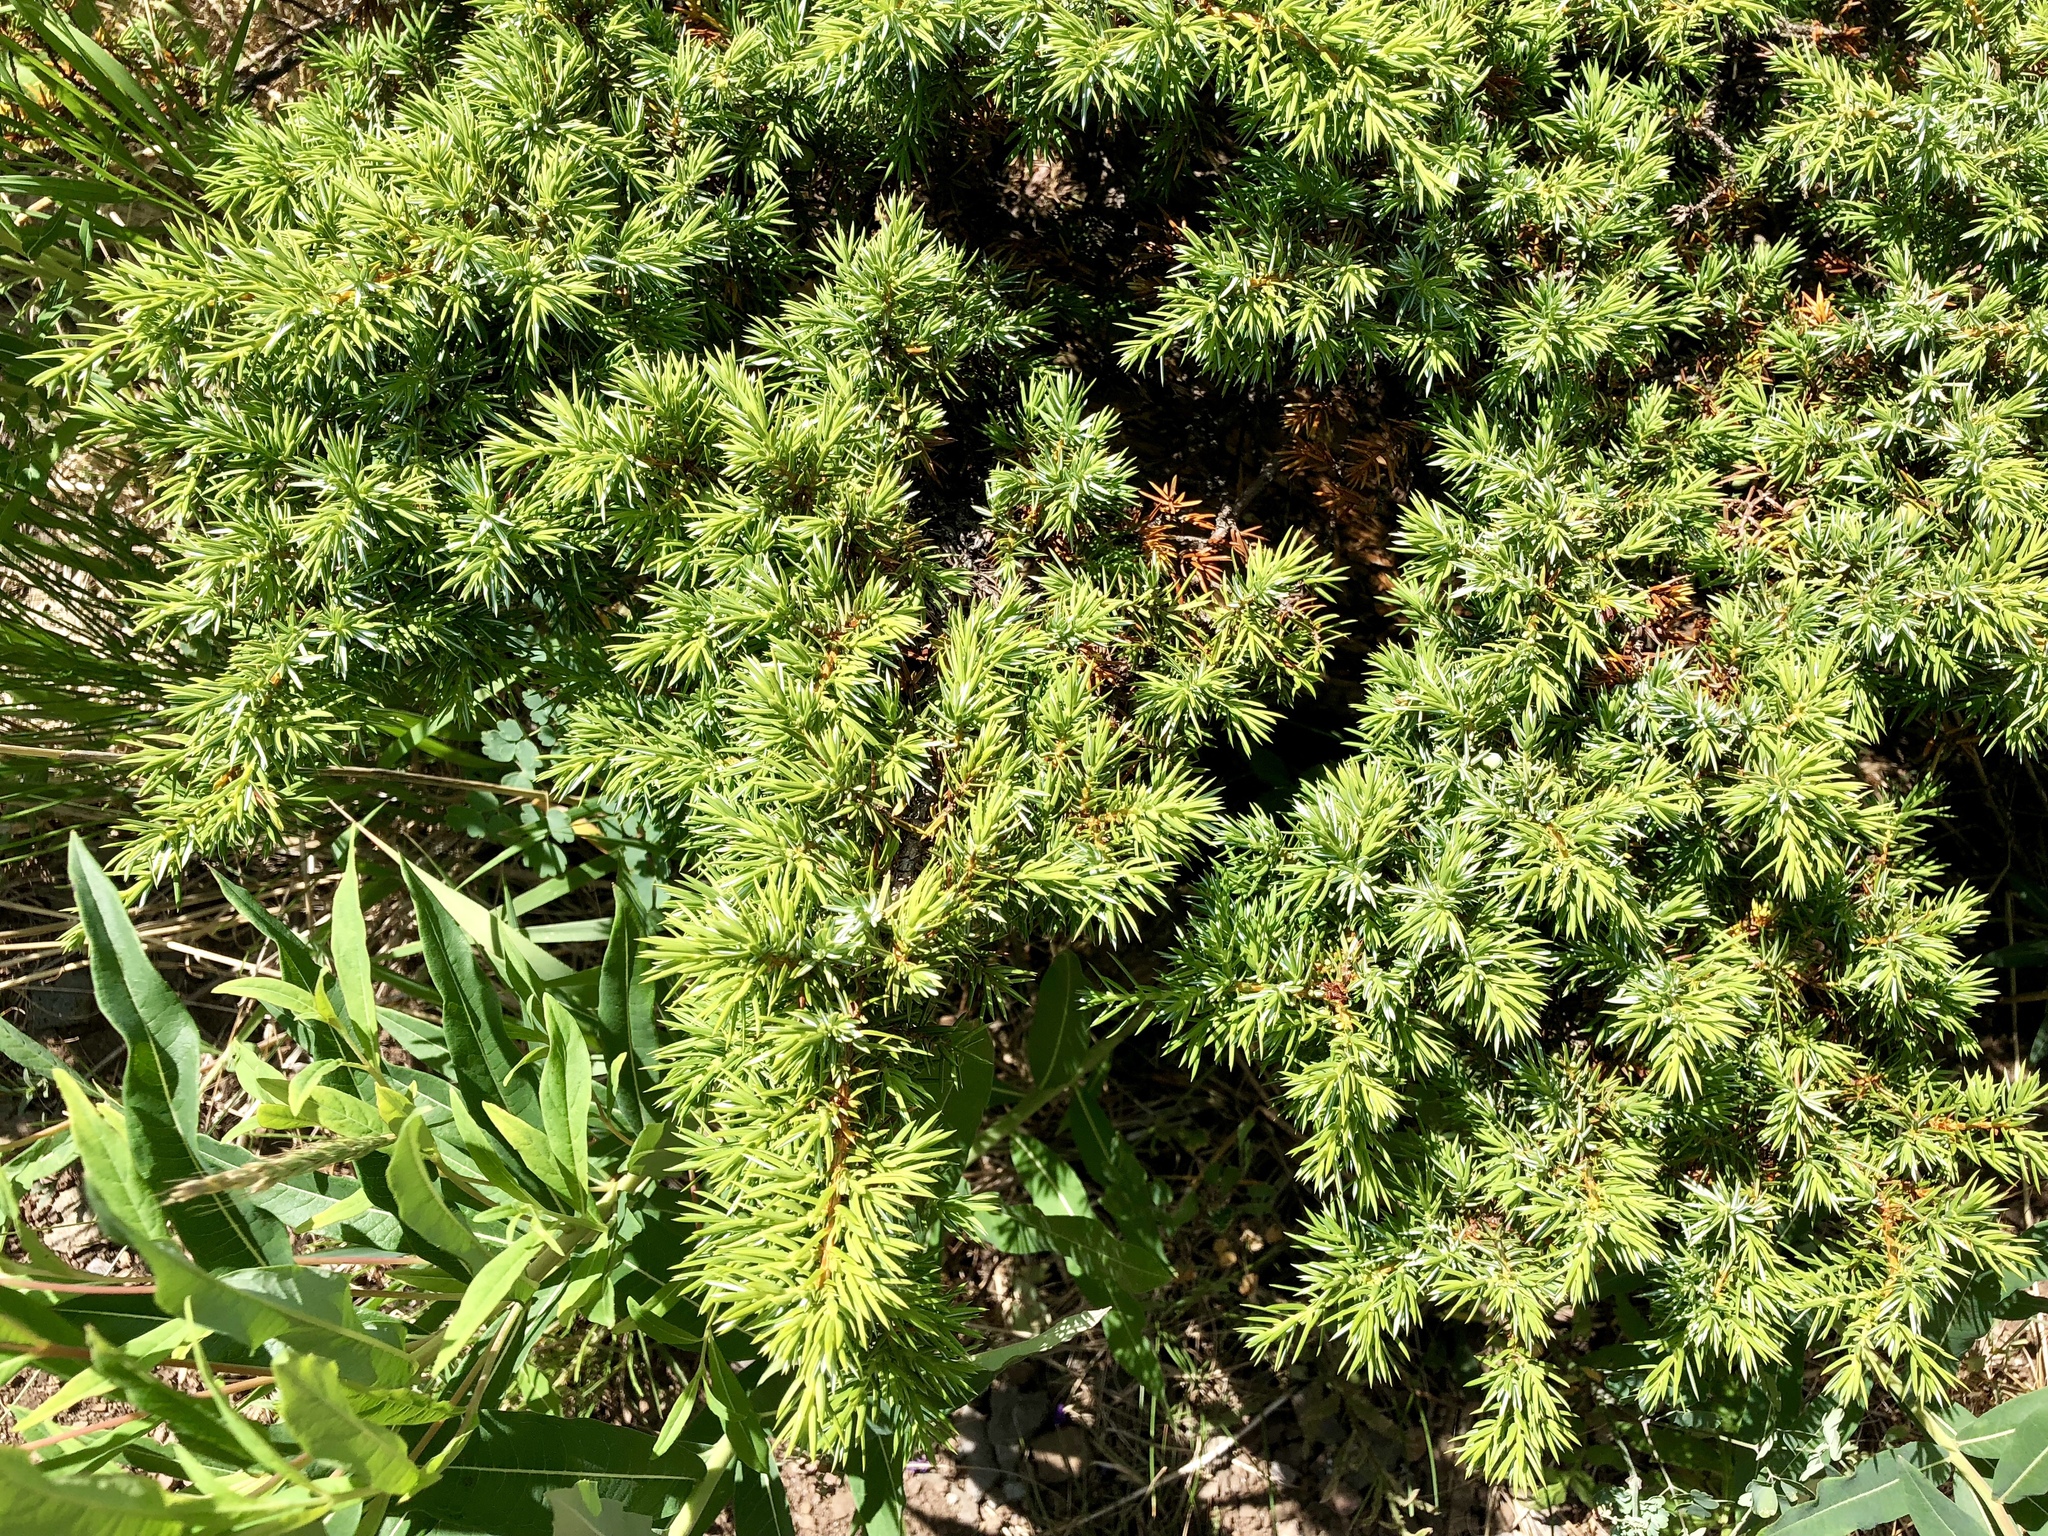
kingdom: Plantae
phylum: Tracheophyta
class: Pinopsida
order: Pinales
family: Cupressaceae
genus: Juniperus
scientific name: Juniperus communis
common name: Common juniper
